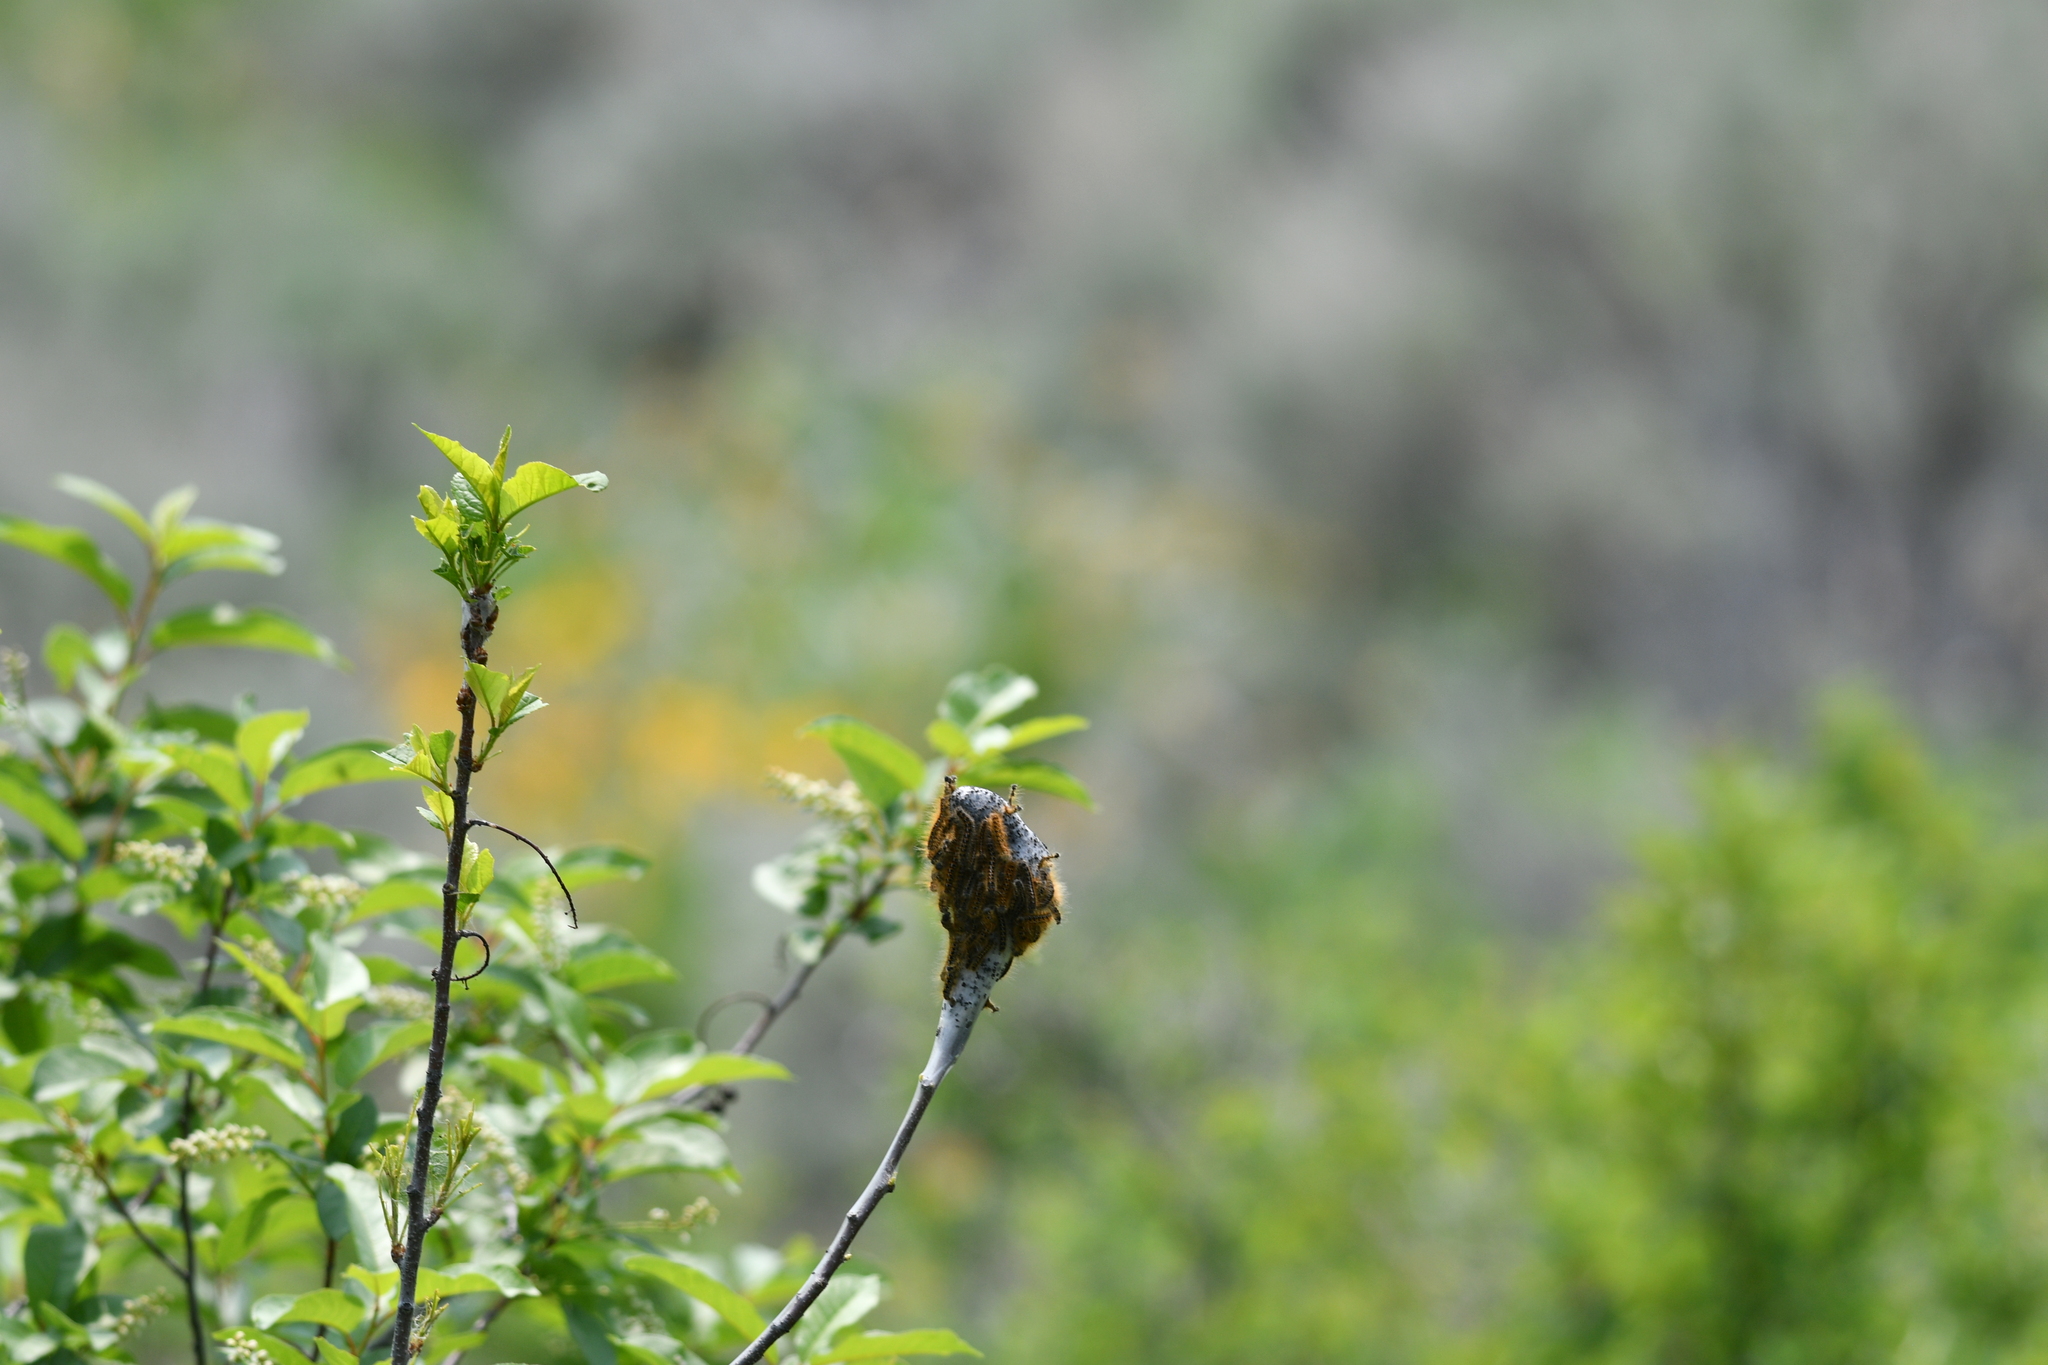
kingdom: Animalia
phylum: Arthropoda
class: Insecta
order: Lepidoptera
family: Lasiocampidae
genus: Malacosoma
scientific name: Malacosoma californica
